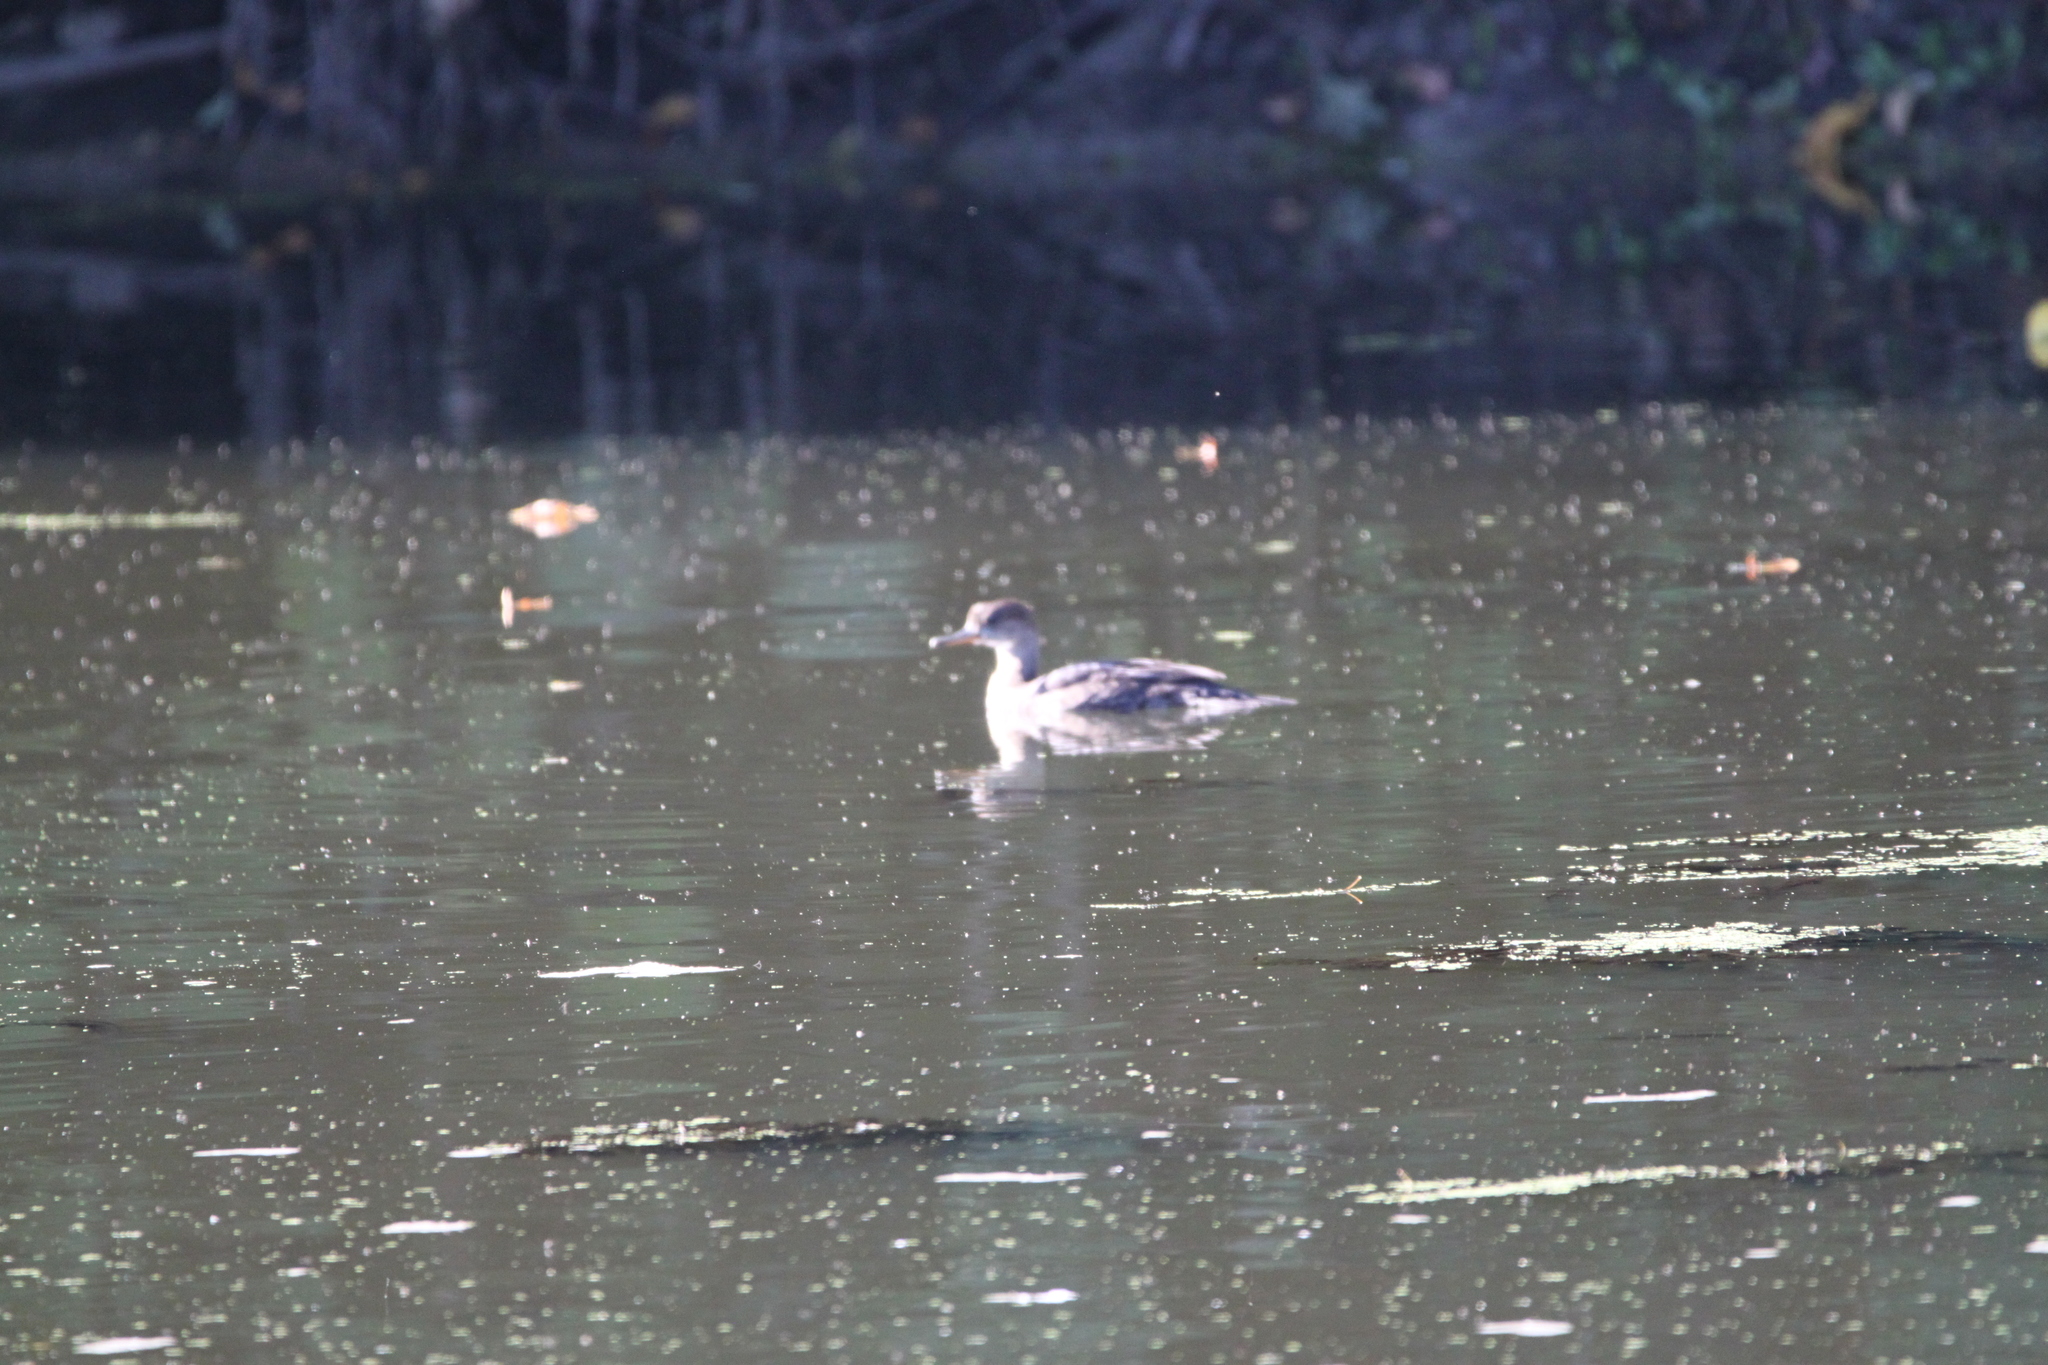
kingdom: Animalia
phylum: Chordata
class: Aves
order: Anseriformes
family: Anatidae
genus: Lophodytes
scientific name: Lophodytes cucullatus
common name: Hooded merganser
